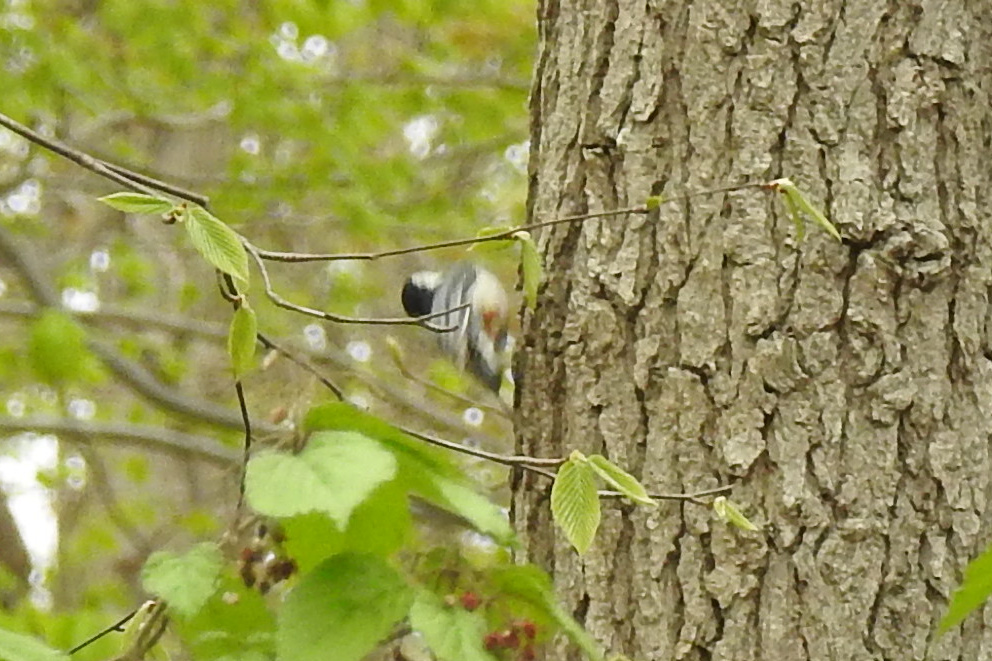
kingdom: Animalia
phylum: Chordata
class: Aves
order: Passeriformes
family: Sittidae
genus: Sitta
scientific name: Sitta carolinensis
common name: White-breasted nuthatch
